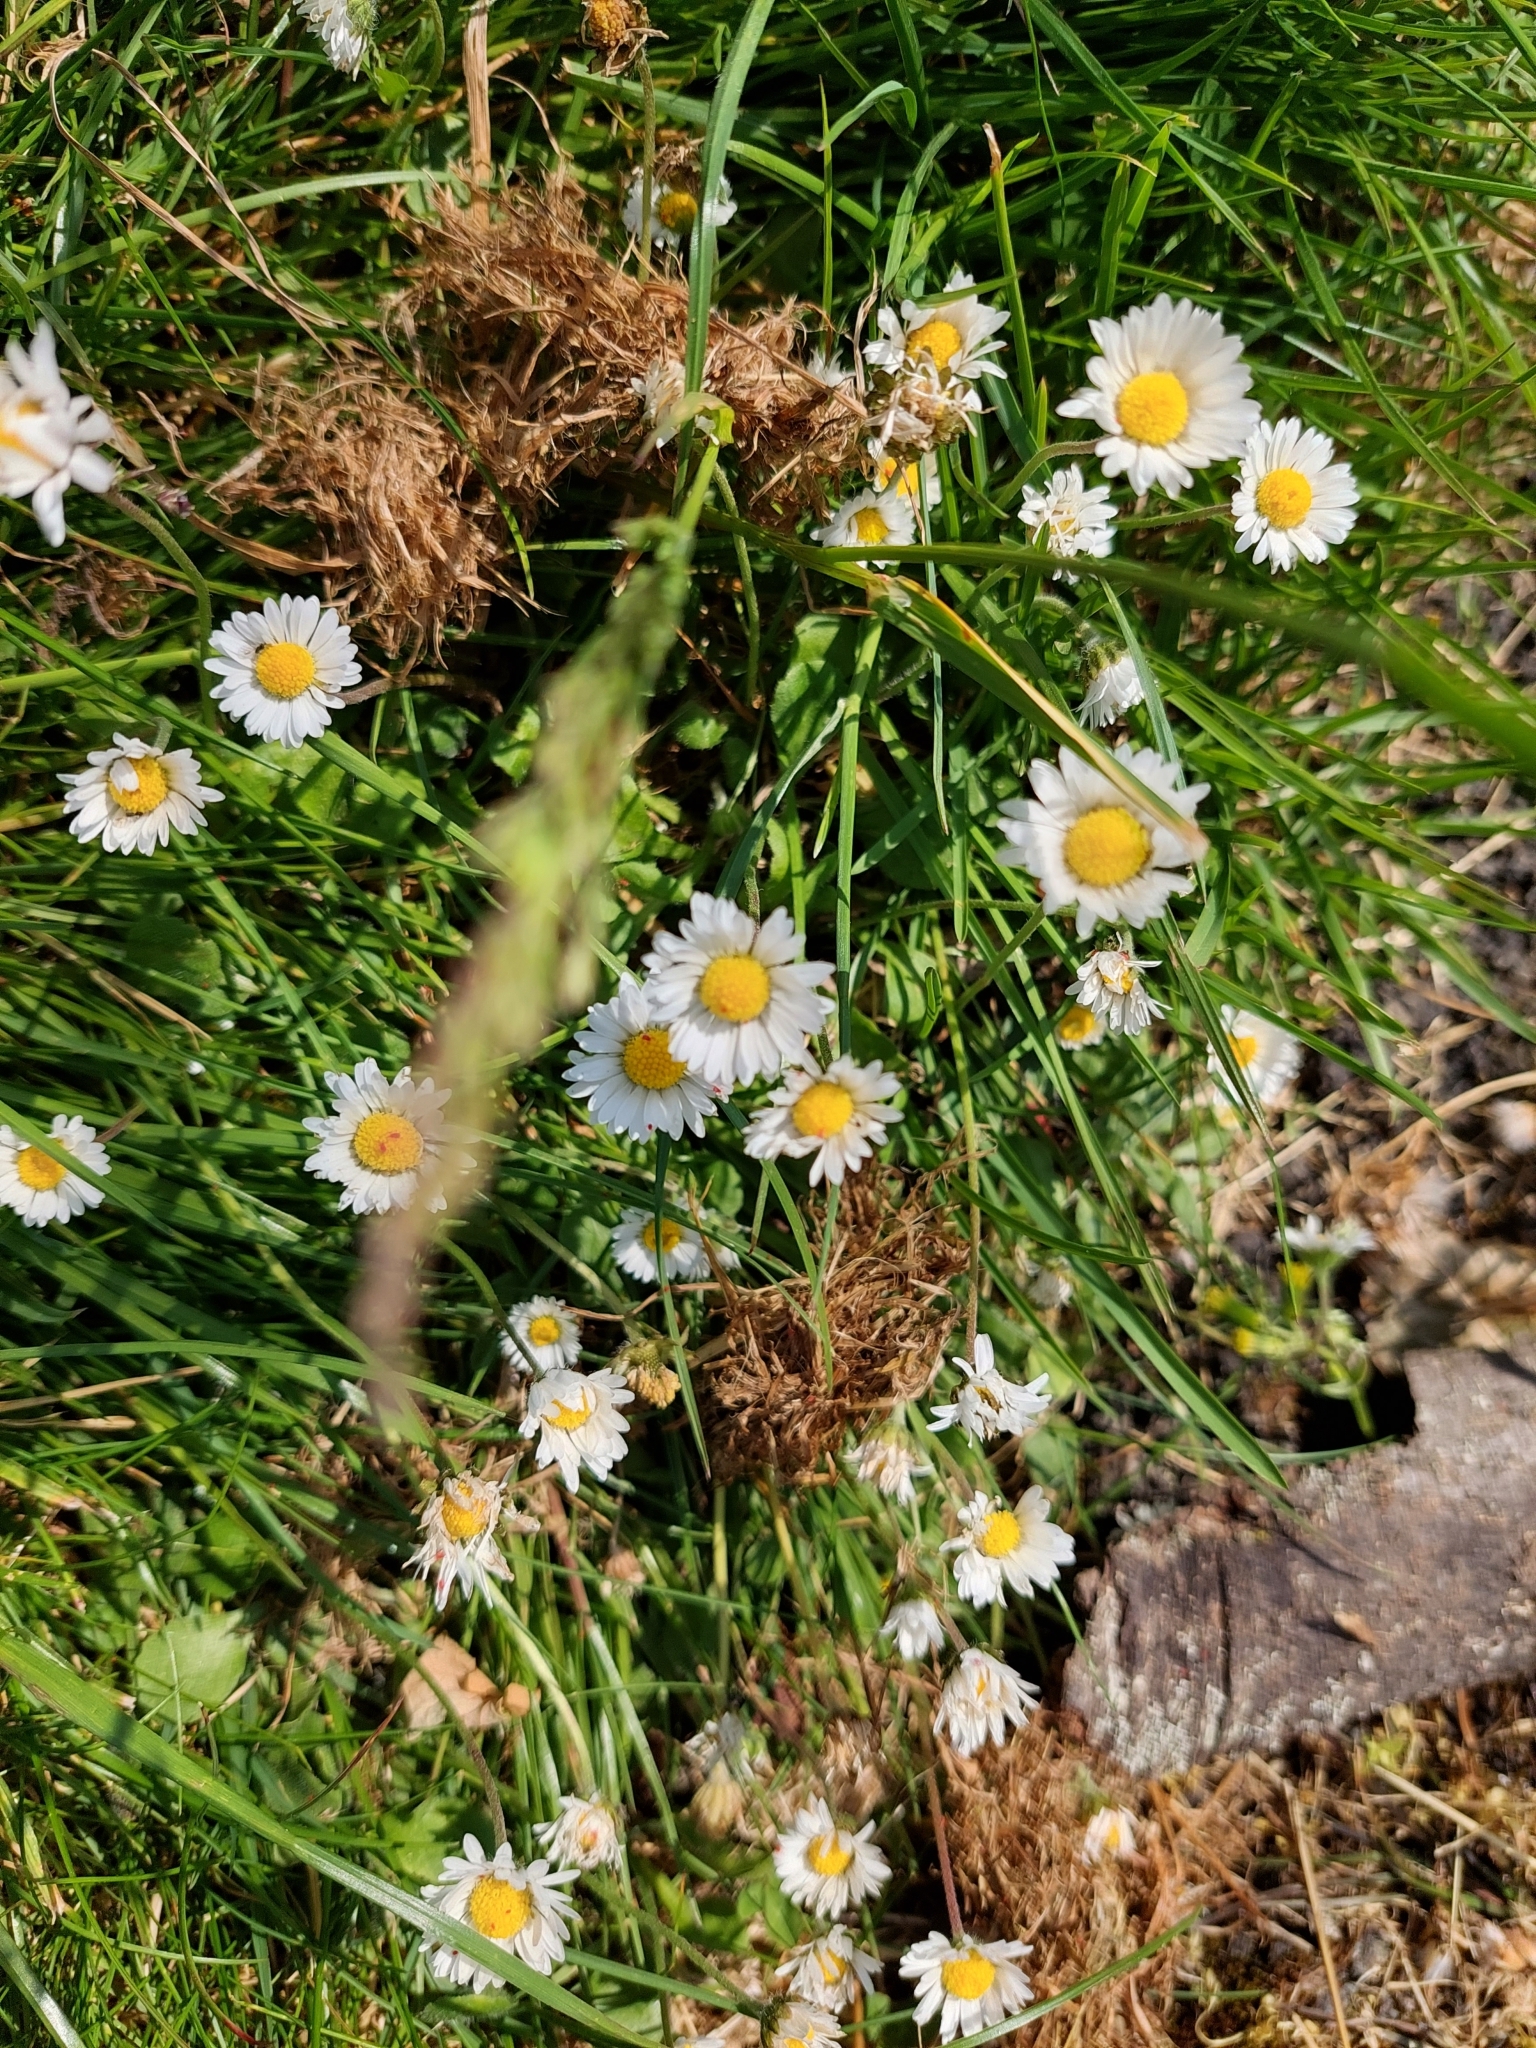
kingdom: Plantae
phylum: Tracheophyta
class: Magnoliopsida
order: Asterales
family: Asteraceae
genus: Bellis
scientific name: Bellis perennis
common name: Lawndaisy
